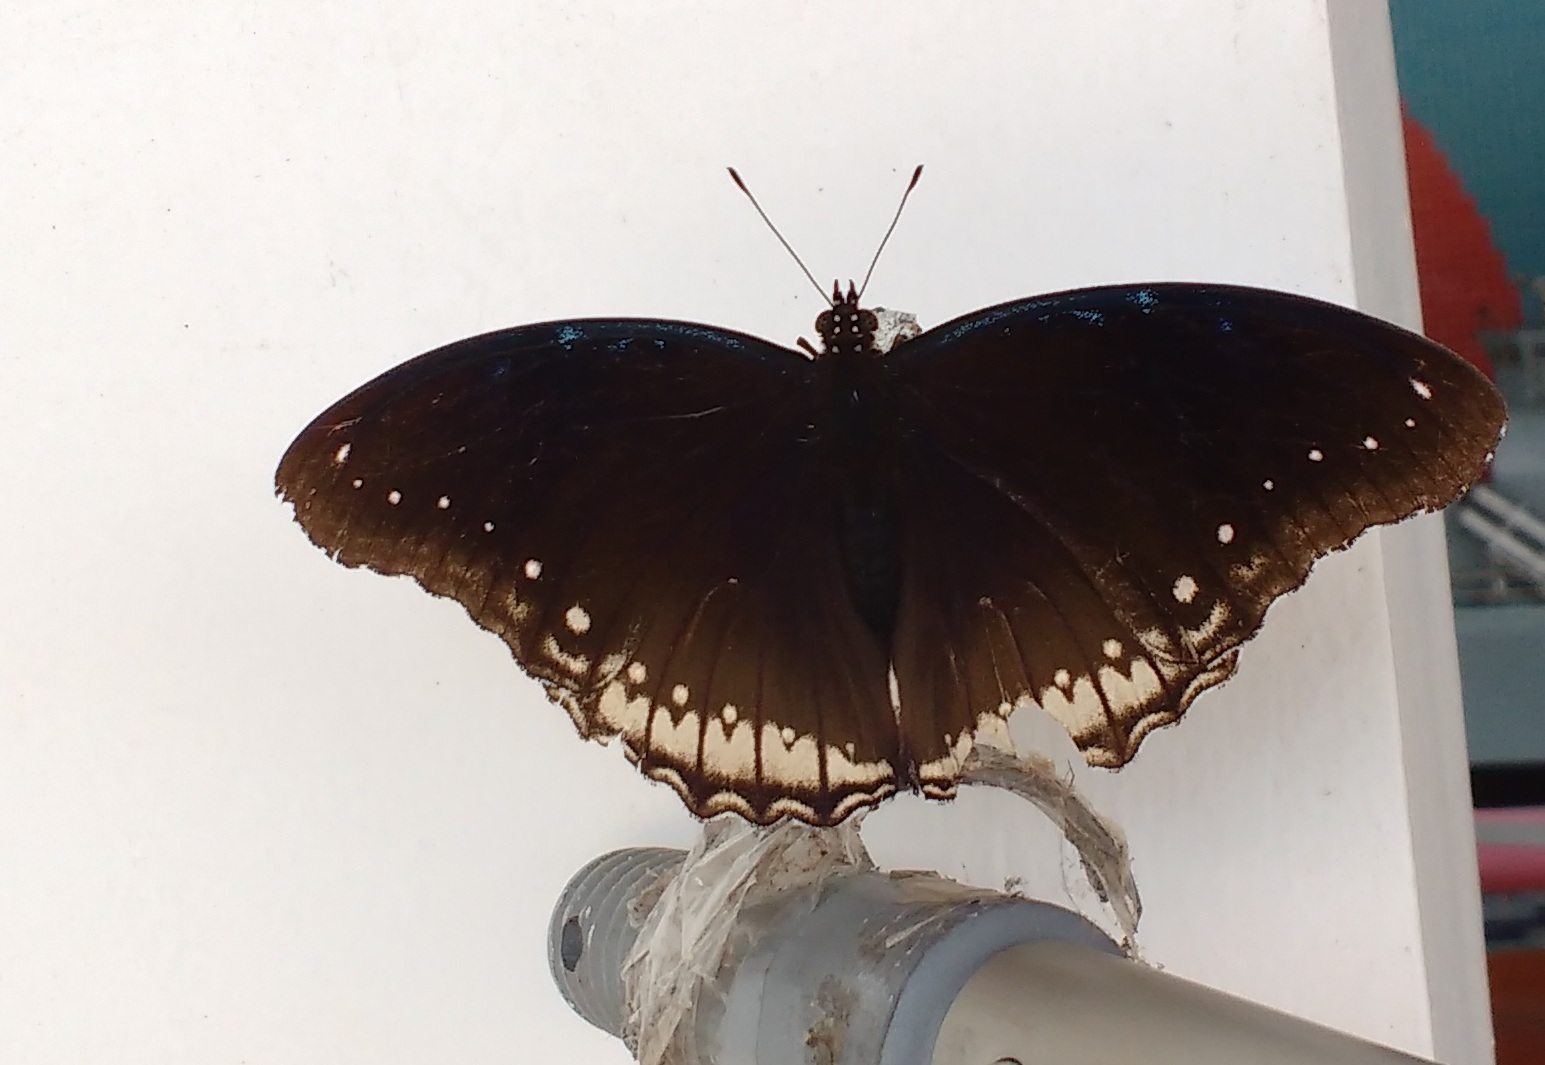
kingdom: Animalia
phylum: Arthropoda
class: Insecta
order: Lepidoptera
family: Nymphalidae
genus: Hypolimnas
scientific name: Hypolimnas bolina
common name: Great eggfly
